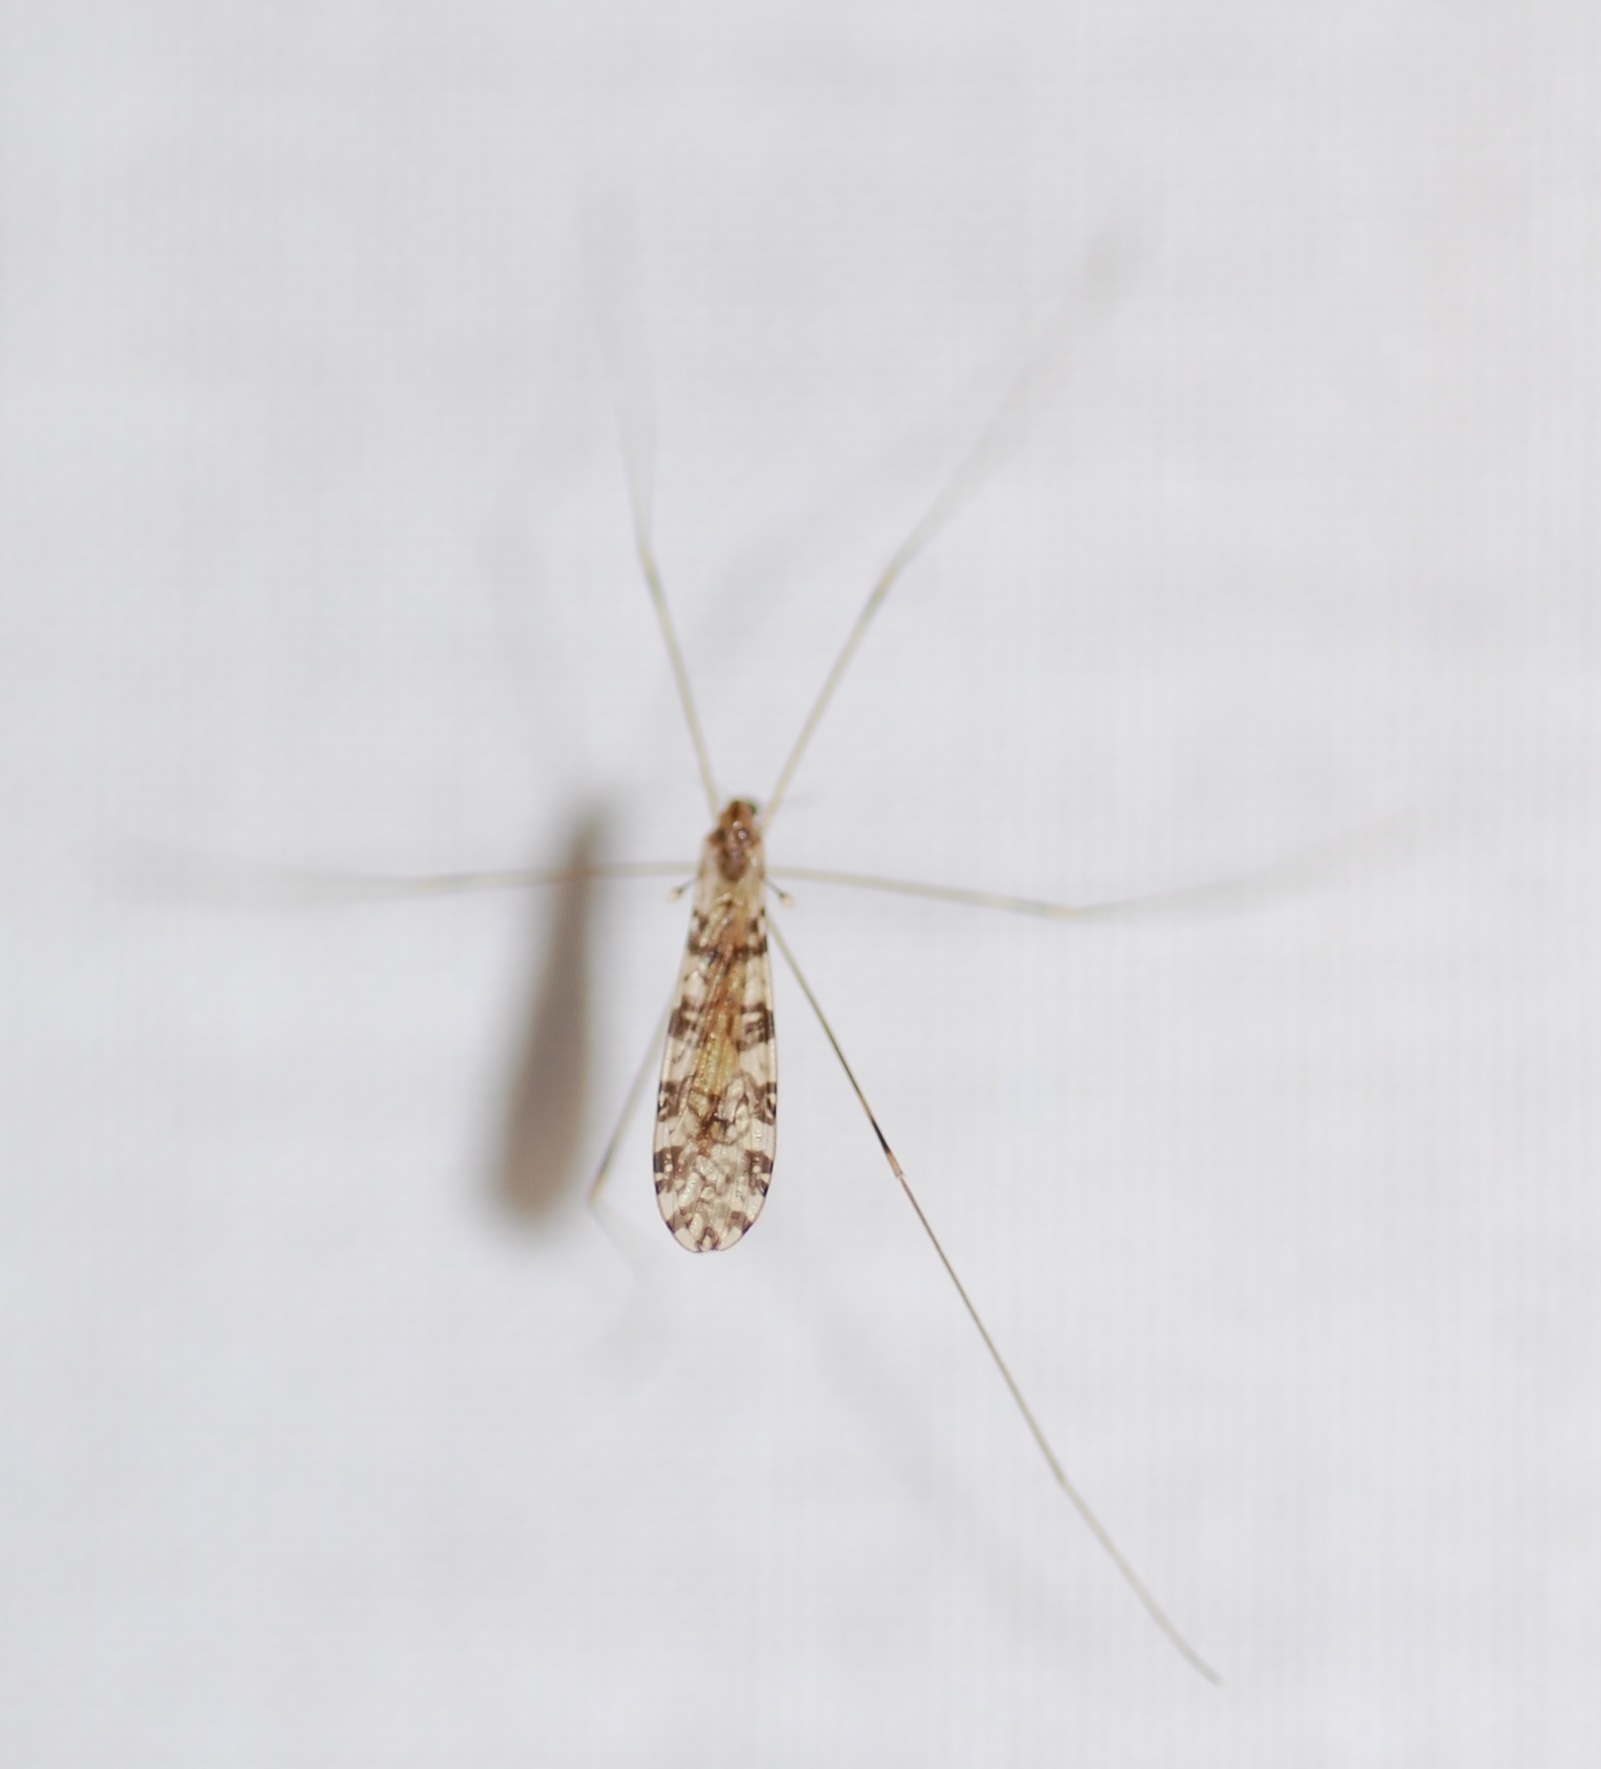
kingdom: Animalia
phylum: Arthropoda
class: Insecta
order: Diptera
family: Limoniidae
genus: Limonia
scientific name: Limonia annulata
